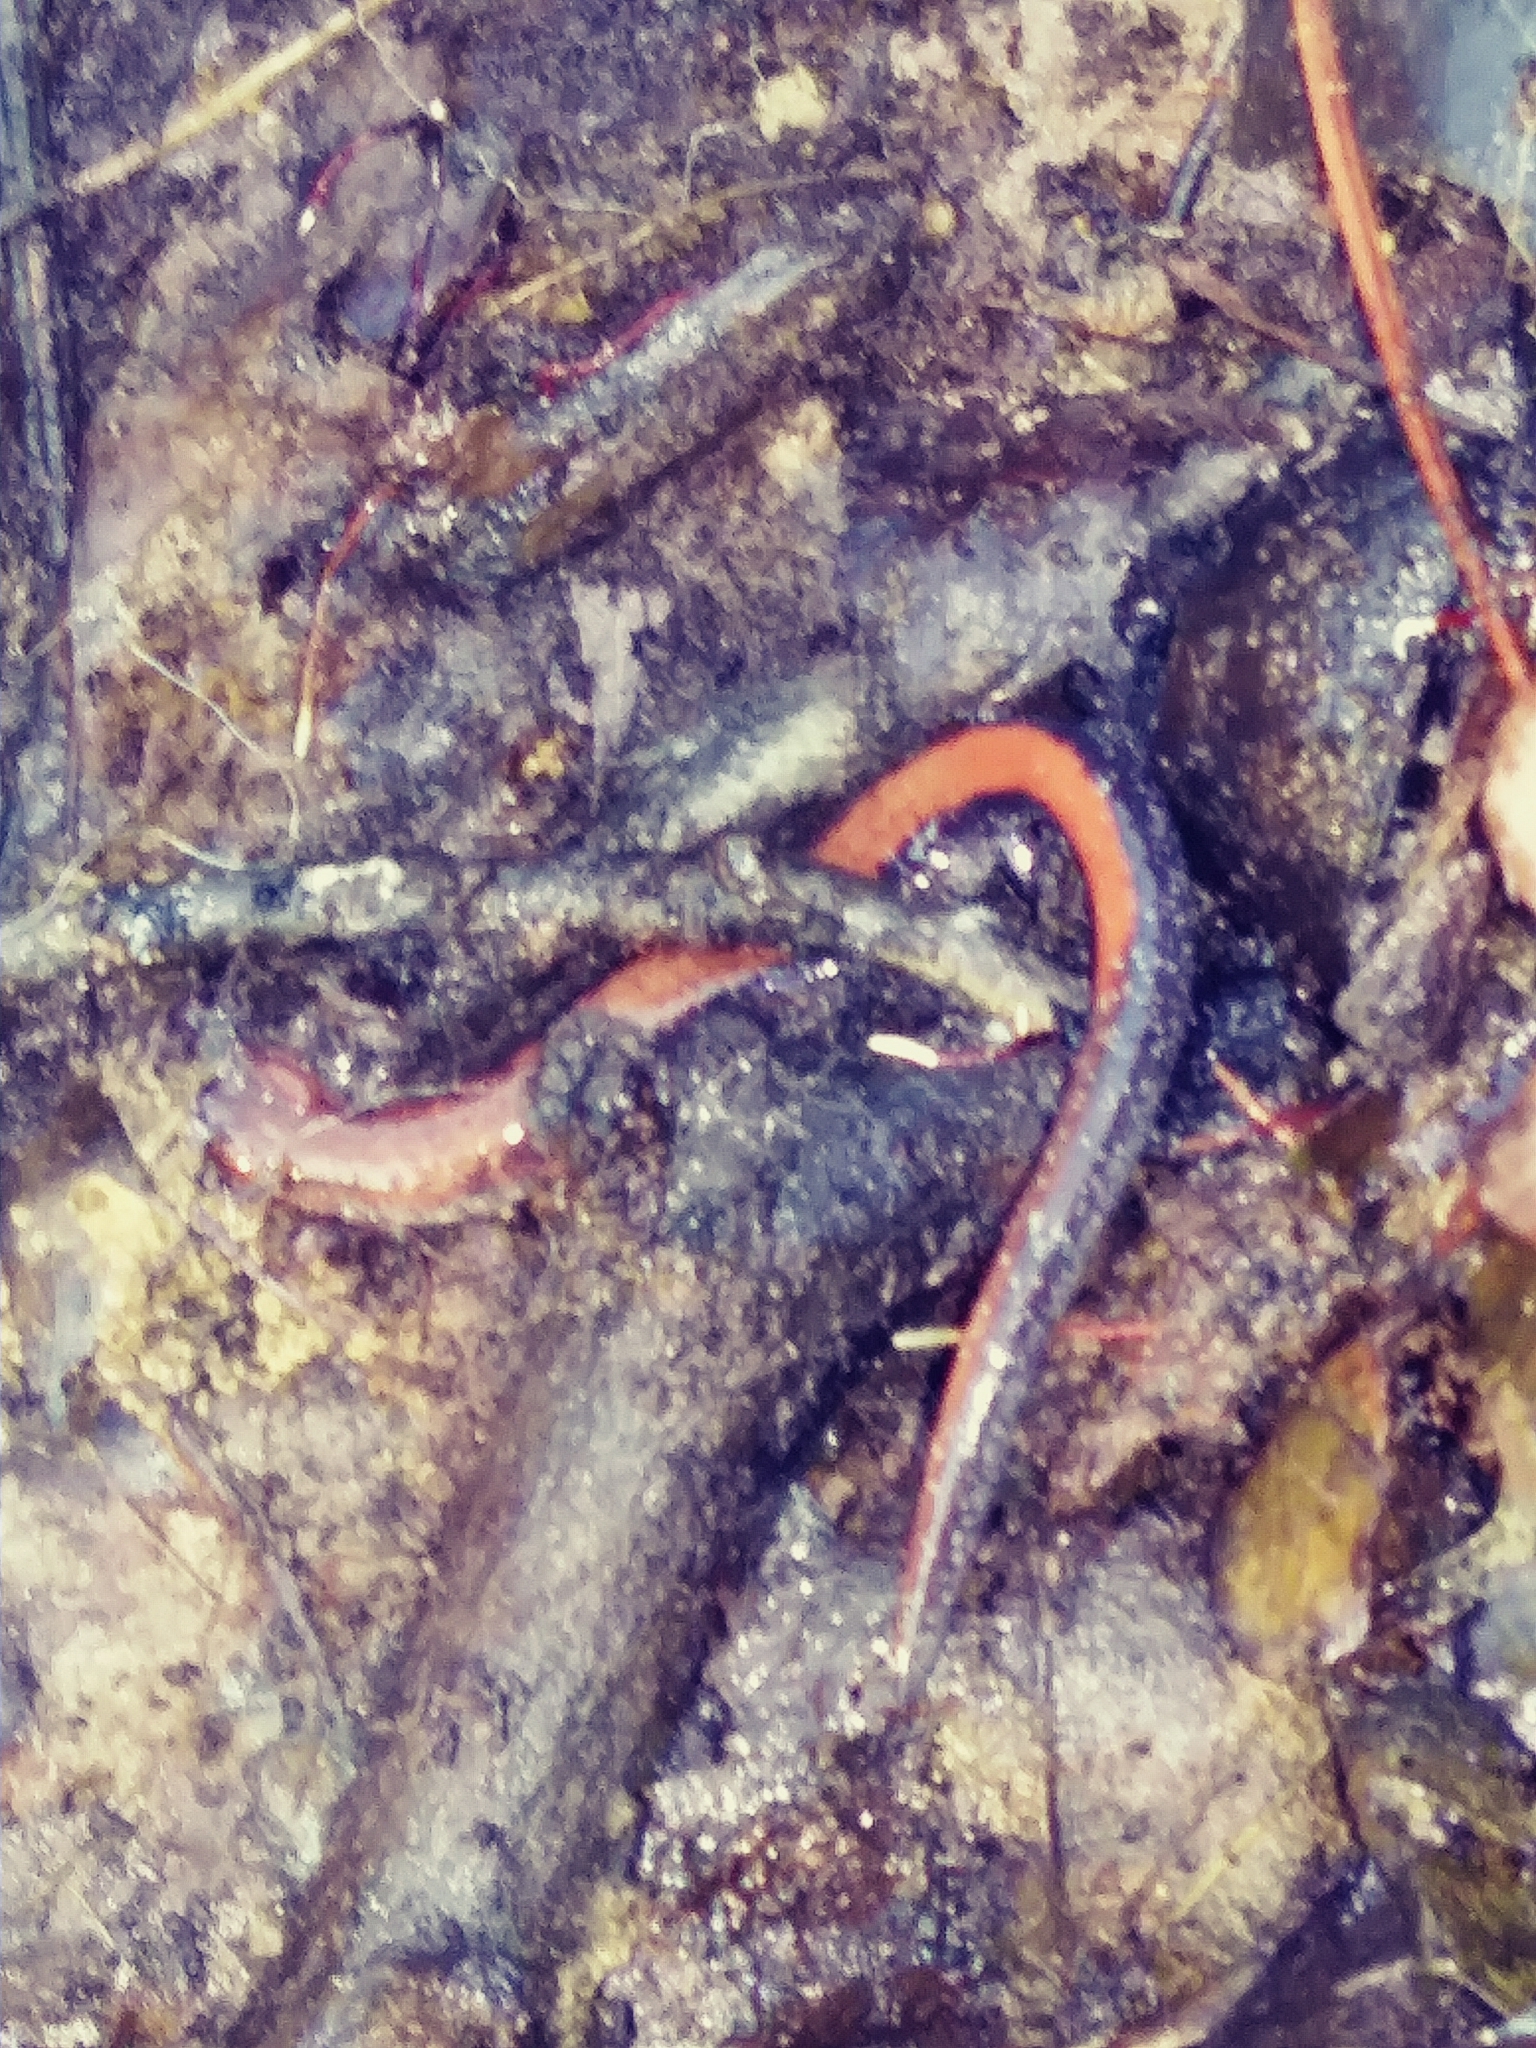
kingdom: Animalia
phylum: Chordata
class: Amphibia
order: Caudata
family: Plethodontidae
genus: Plethodon
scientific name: Plethodon cinereus
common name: Redback salamander
